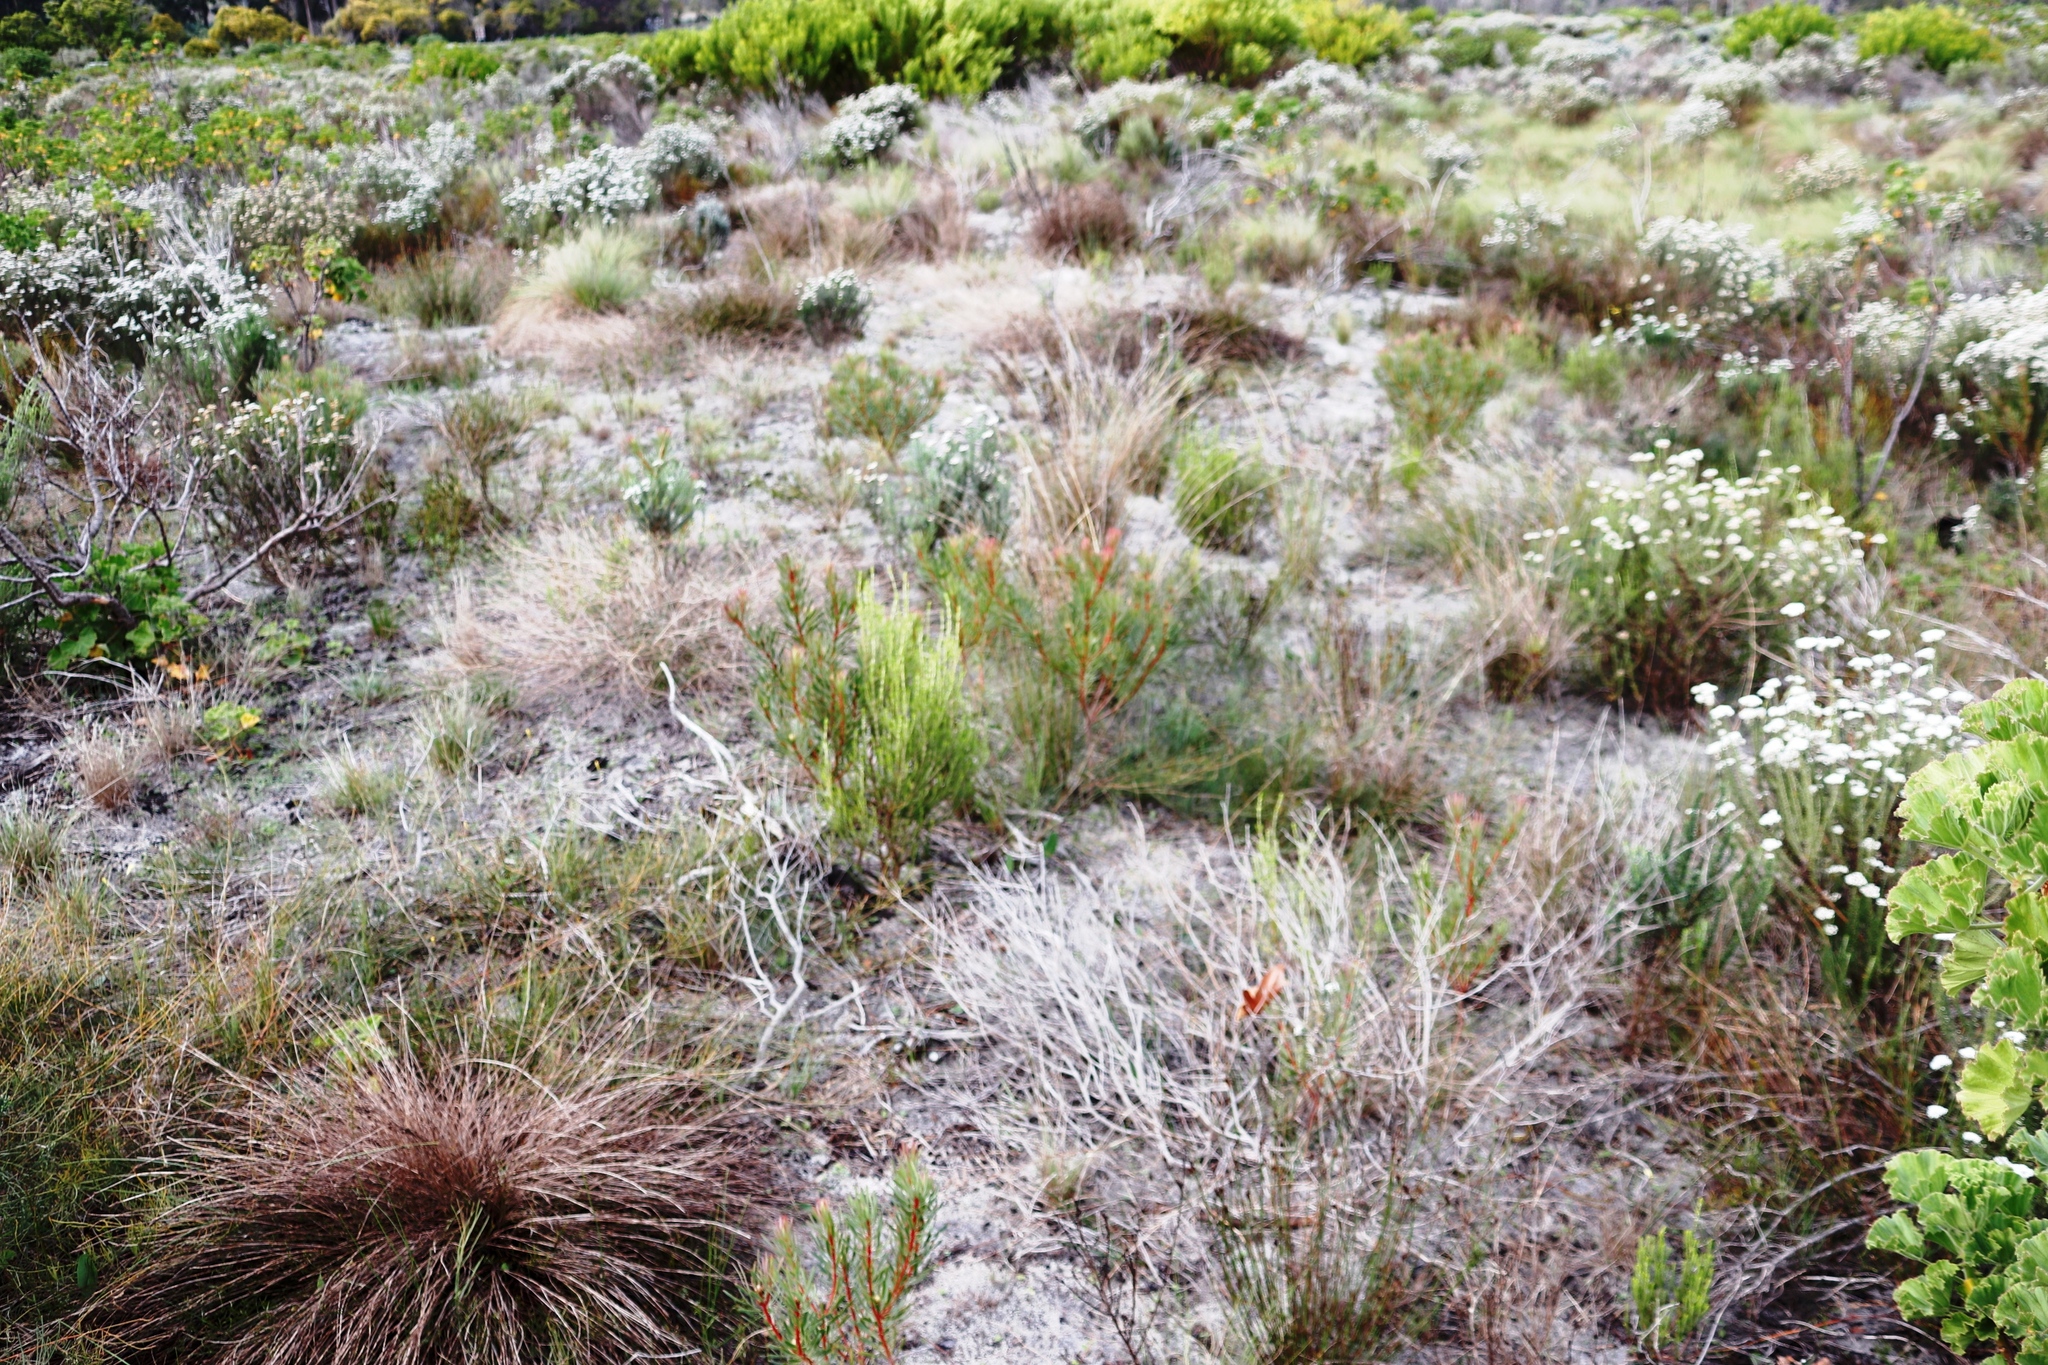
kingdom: Plantae
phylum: Tracheophyta
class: Magnoliopsida
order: Proteales
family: Proteaceae
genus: Protea
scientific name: Protea scolymocephala
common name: Thistle sugarbush
